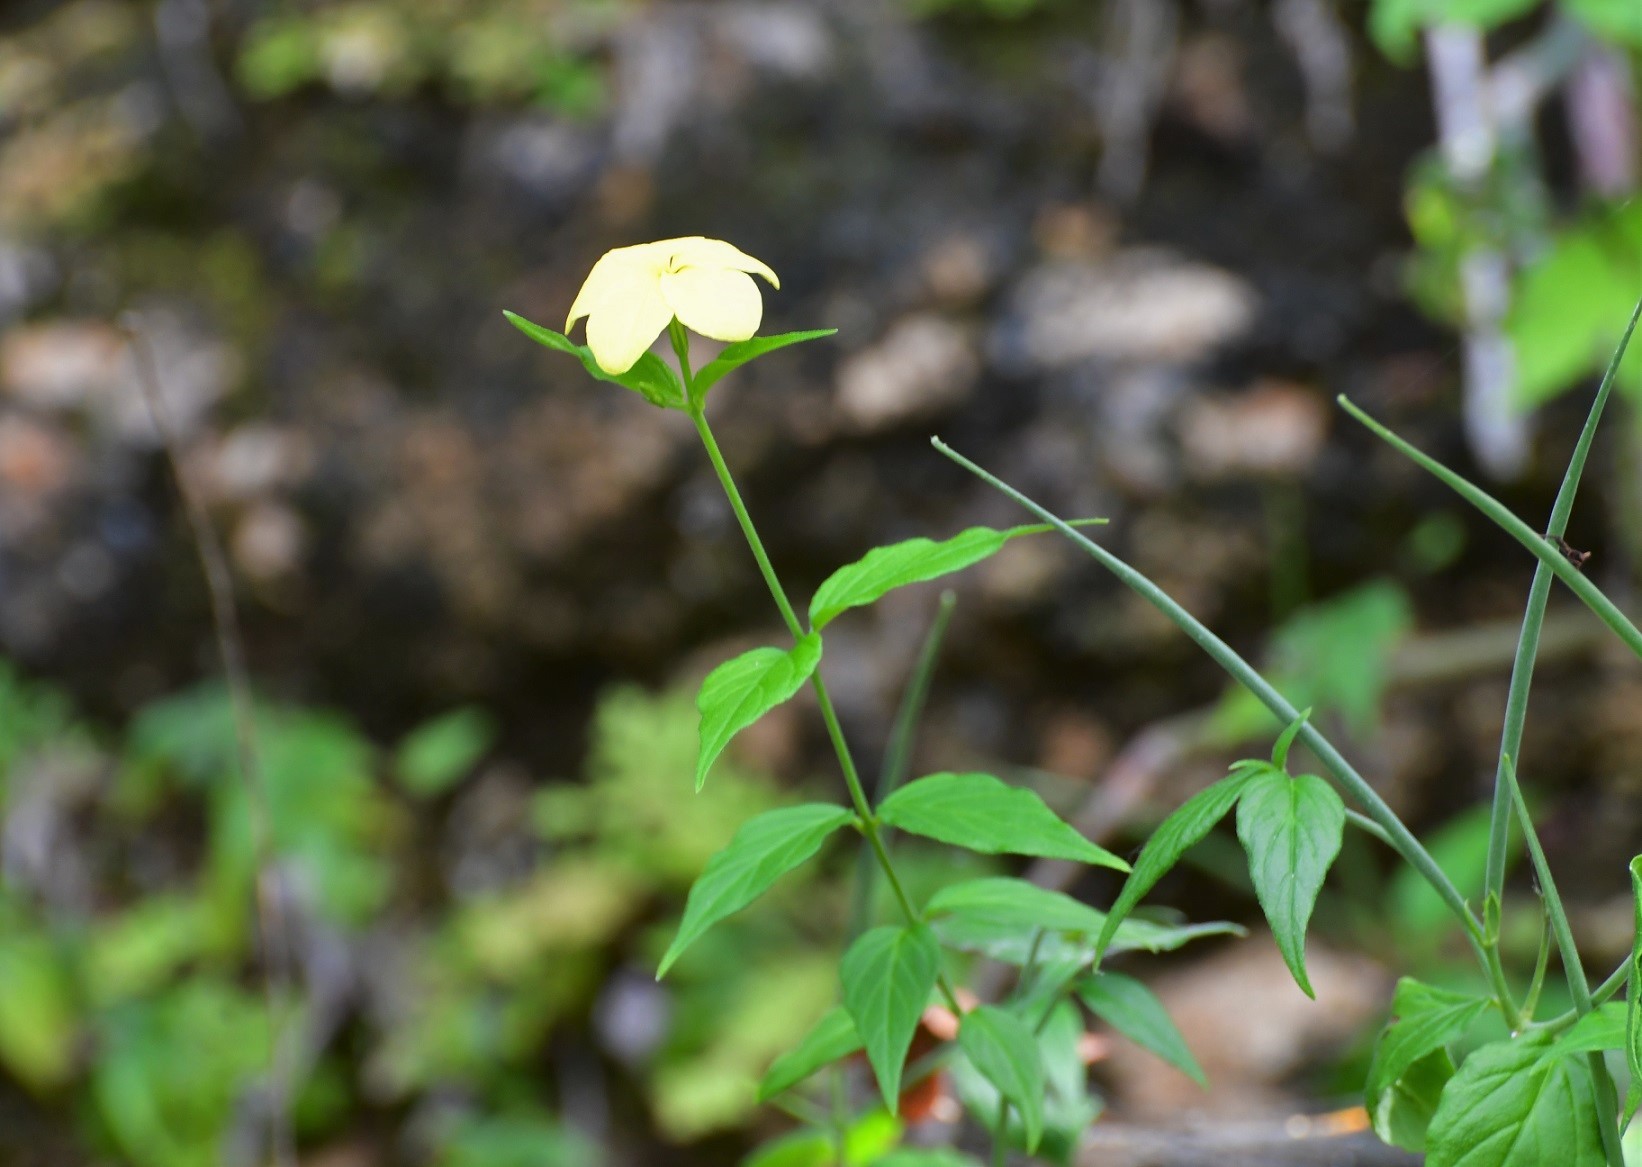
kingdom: Plantae
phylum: Tracheophyta
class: Magnoliopsida
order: Gentianales
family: Apocynaceae
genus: Haplophyton
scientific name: Haplophyton cimicidum
